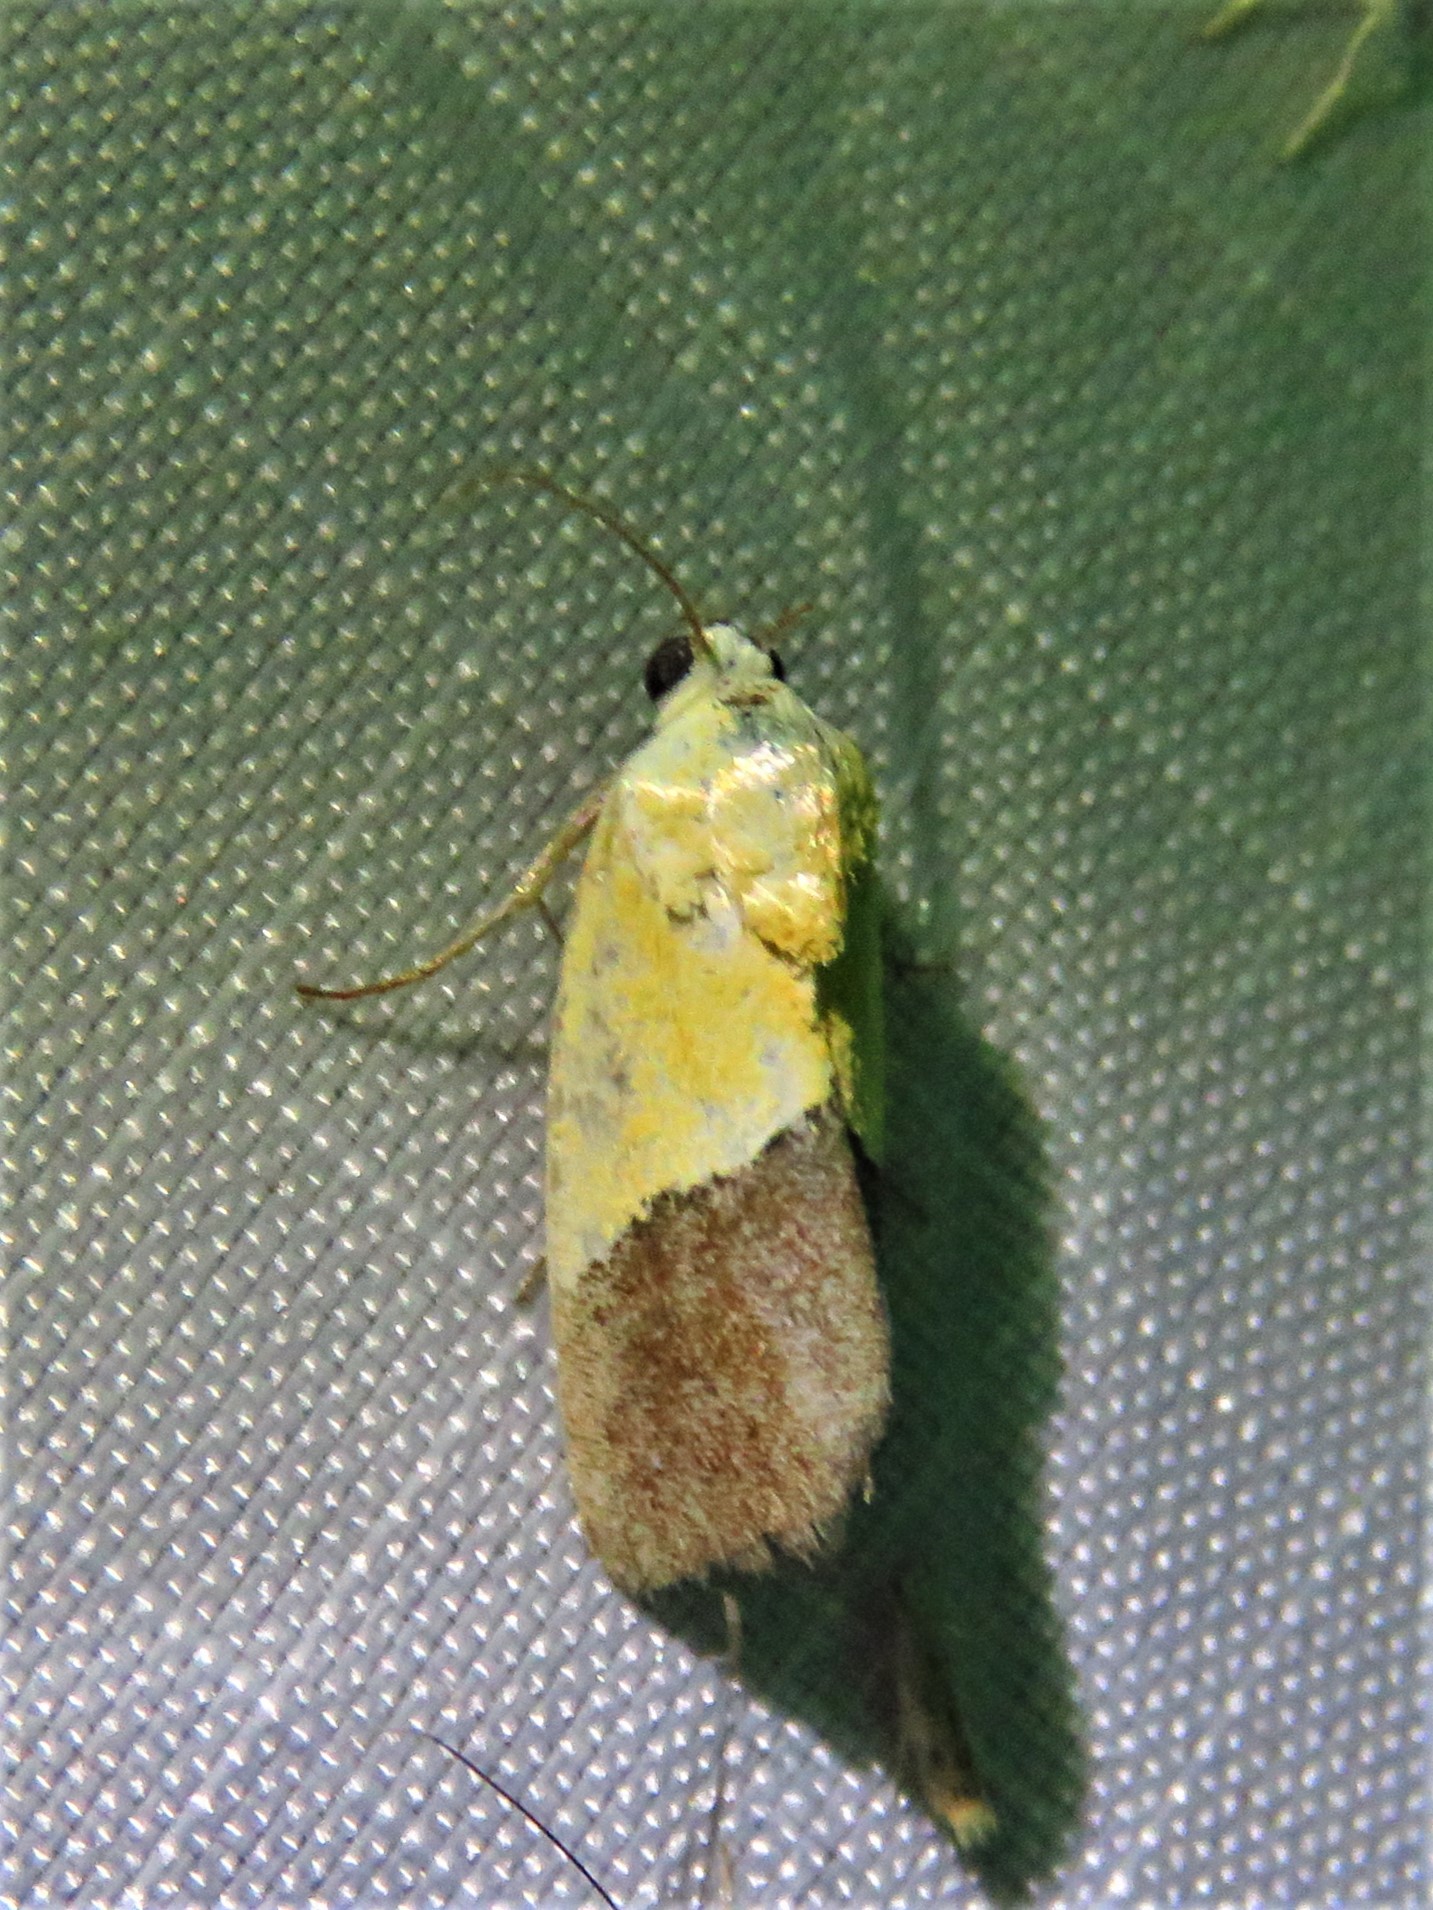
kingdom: Animalia
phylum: Arthropoda
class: Insecta
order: Lepidoptera
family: Noctuidae
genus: Acontia
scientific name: Acontia semiflava
